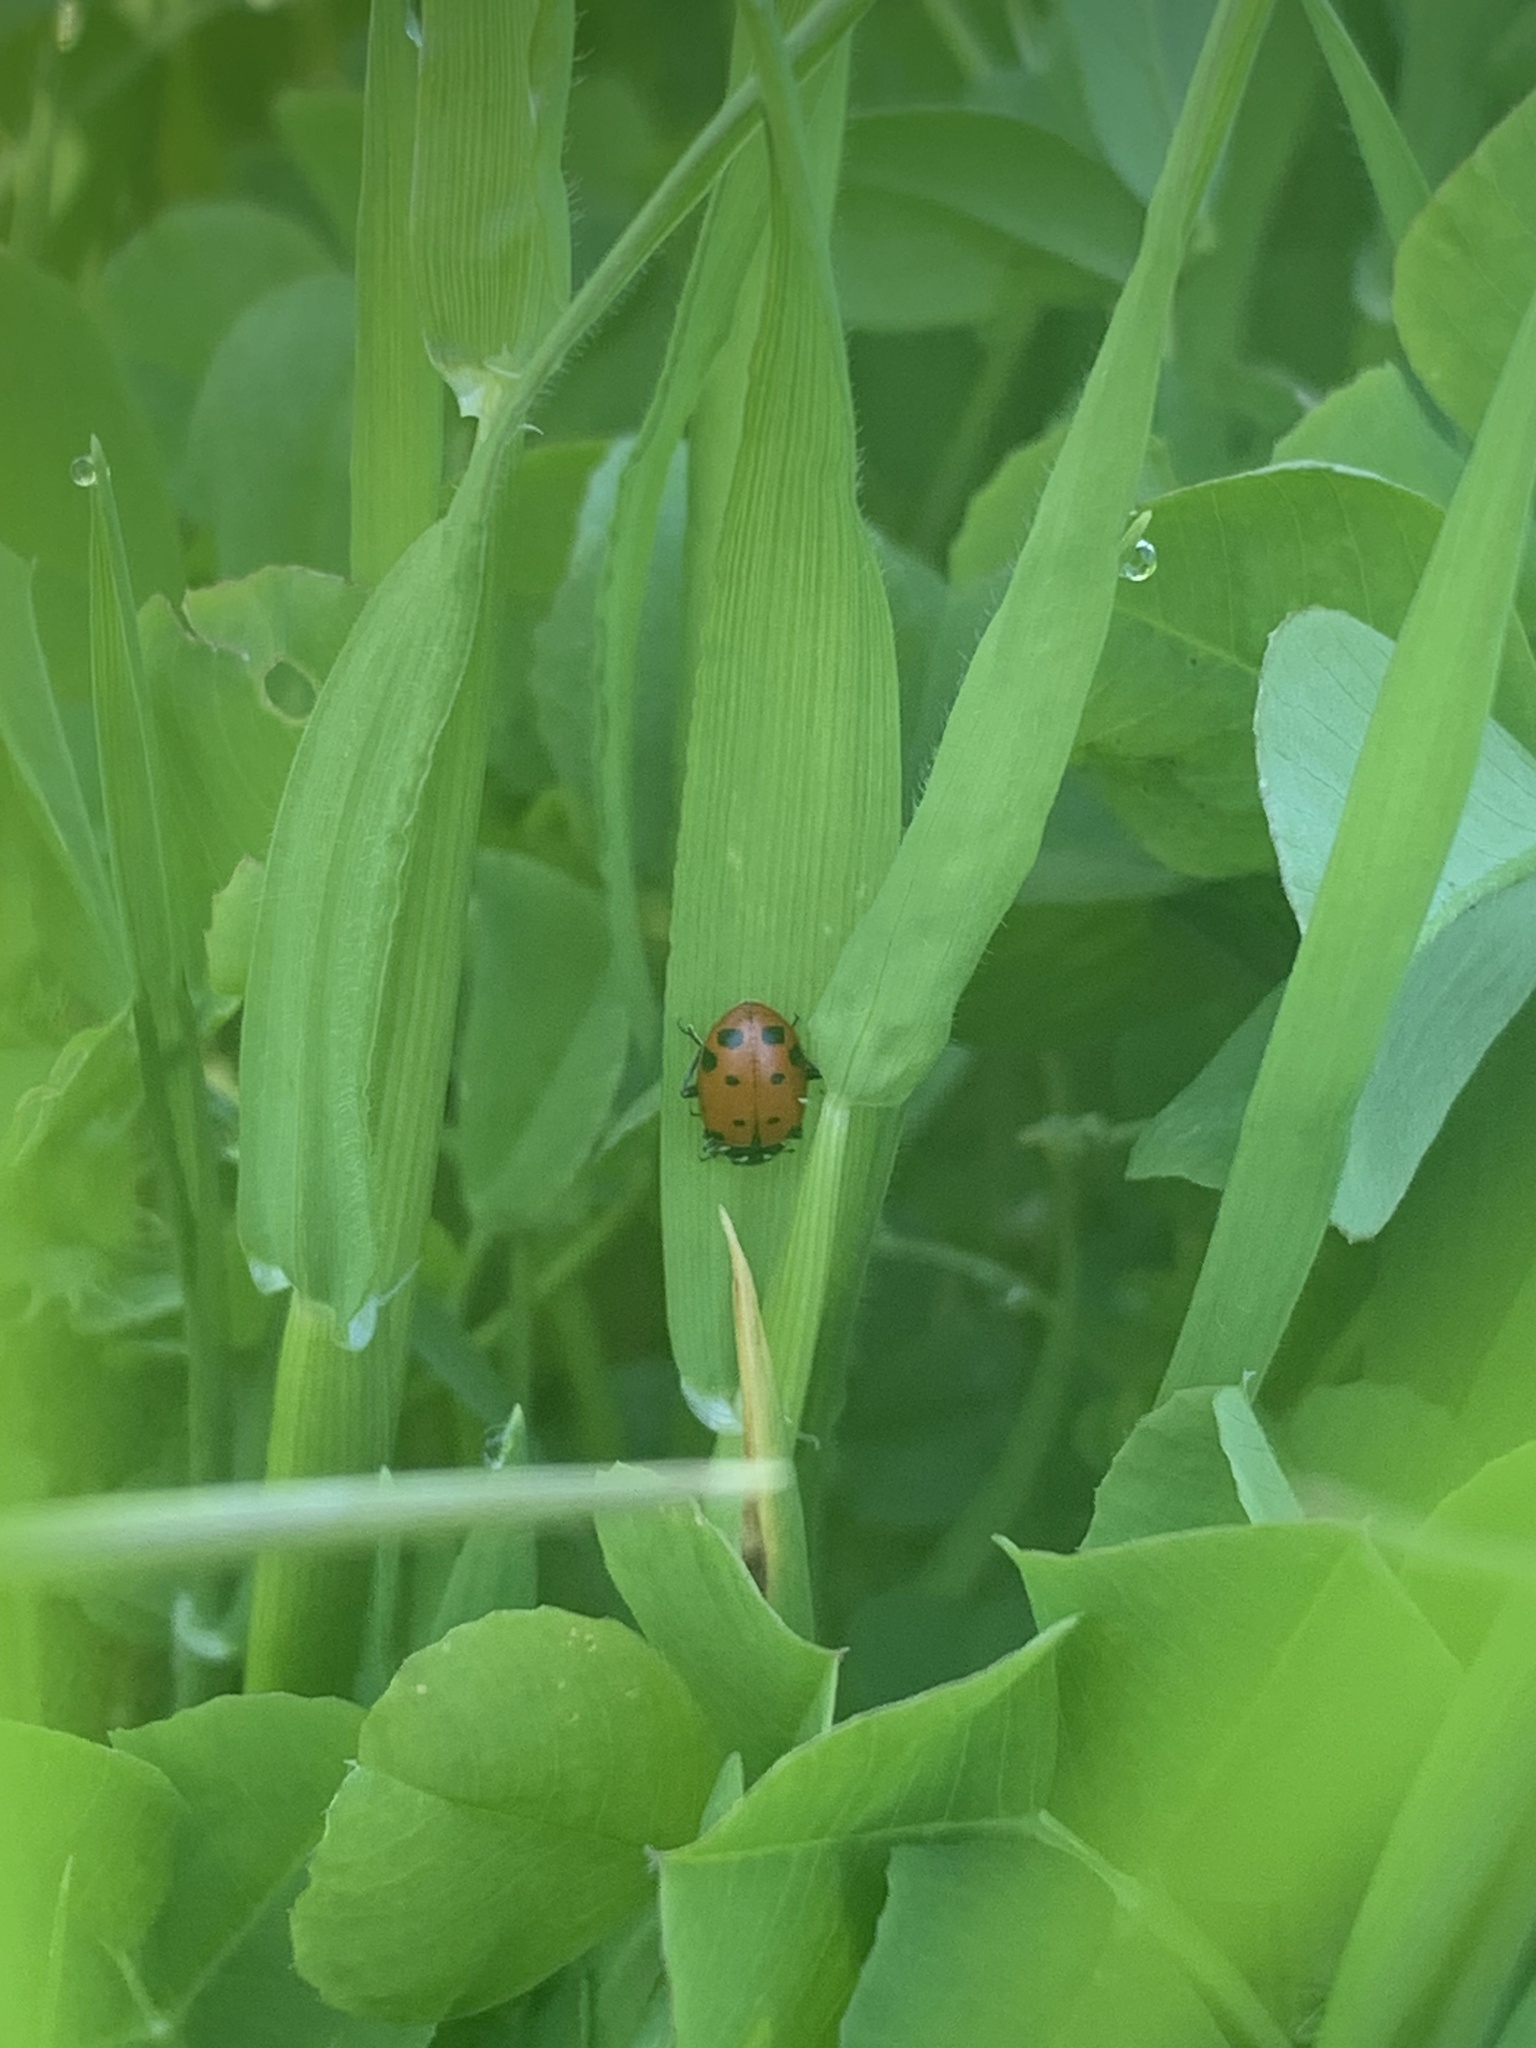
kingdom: Animalia
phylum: Arthropoda
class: Insecta
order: Coleoptera
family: Coccinellidae
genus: Hippodamia
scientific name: Hippodamia convergens
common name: Convergent lady beetle
